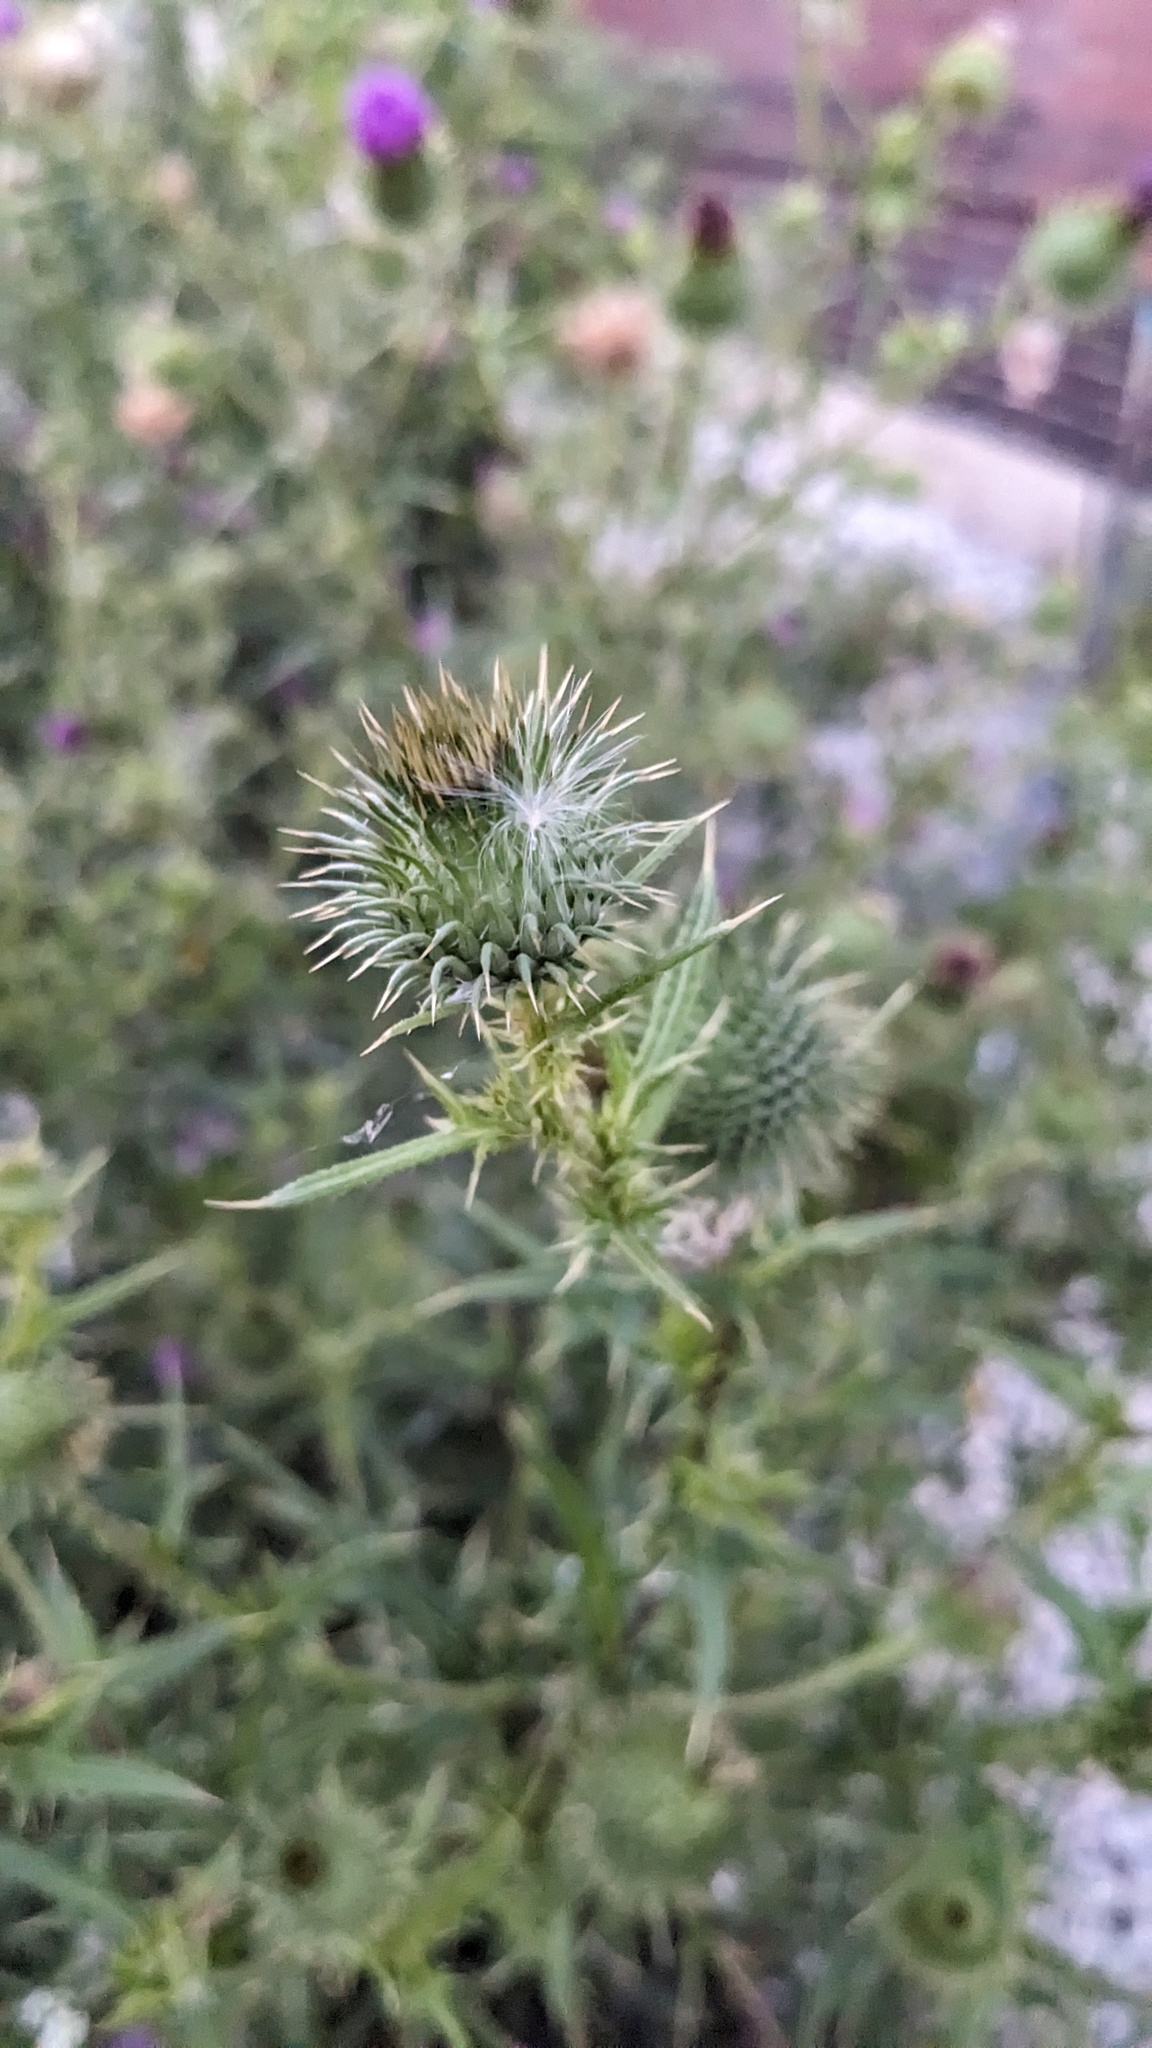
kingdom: Plantae
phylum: Tracheophyta
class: Magnoliopsida
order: Asterales
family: Asteraceae
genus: Cirsium
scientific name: Cirsium vulgare
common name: Bull thistle
